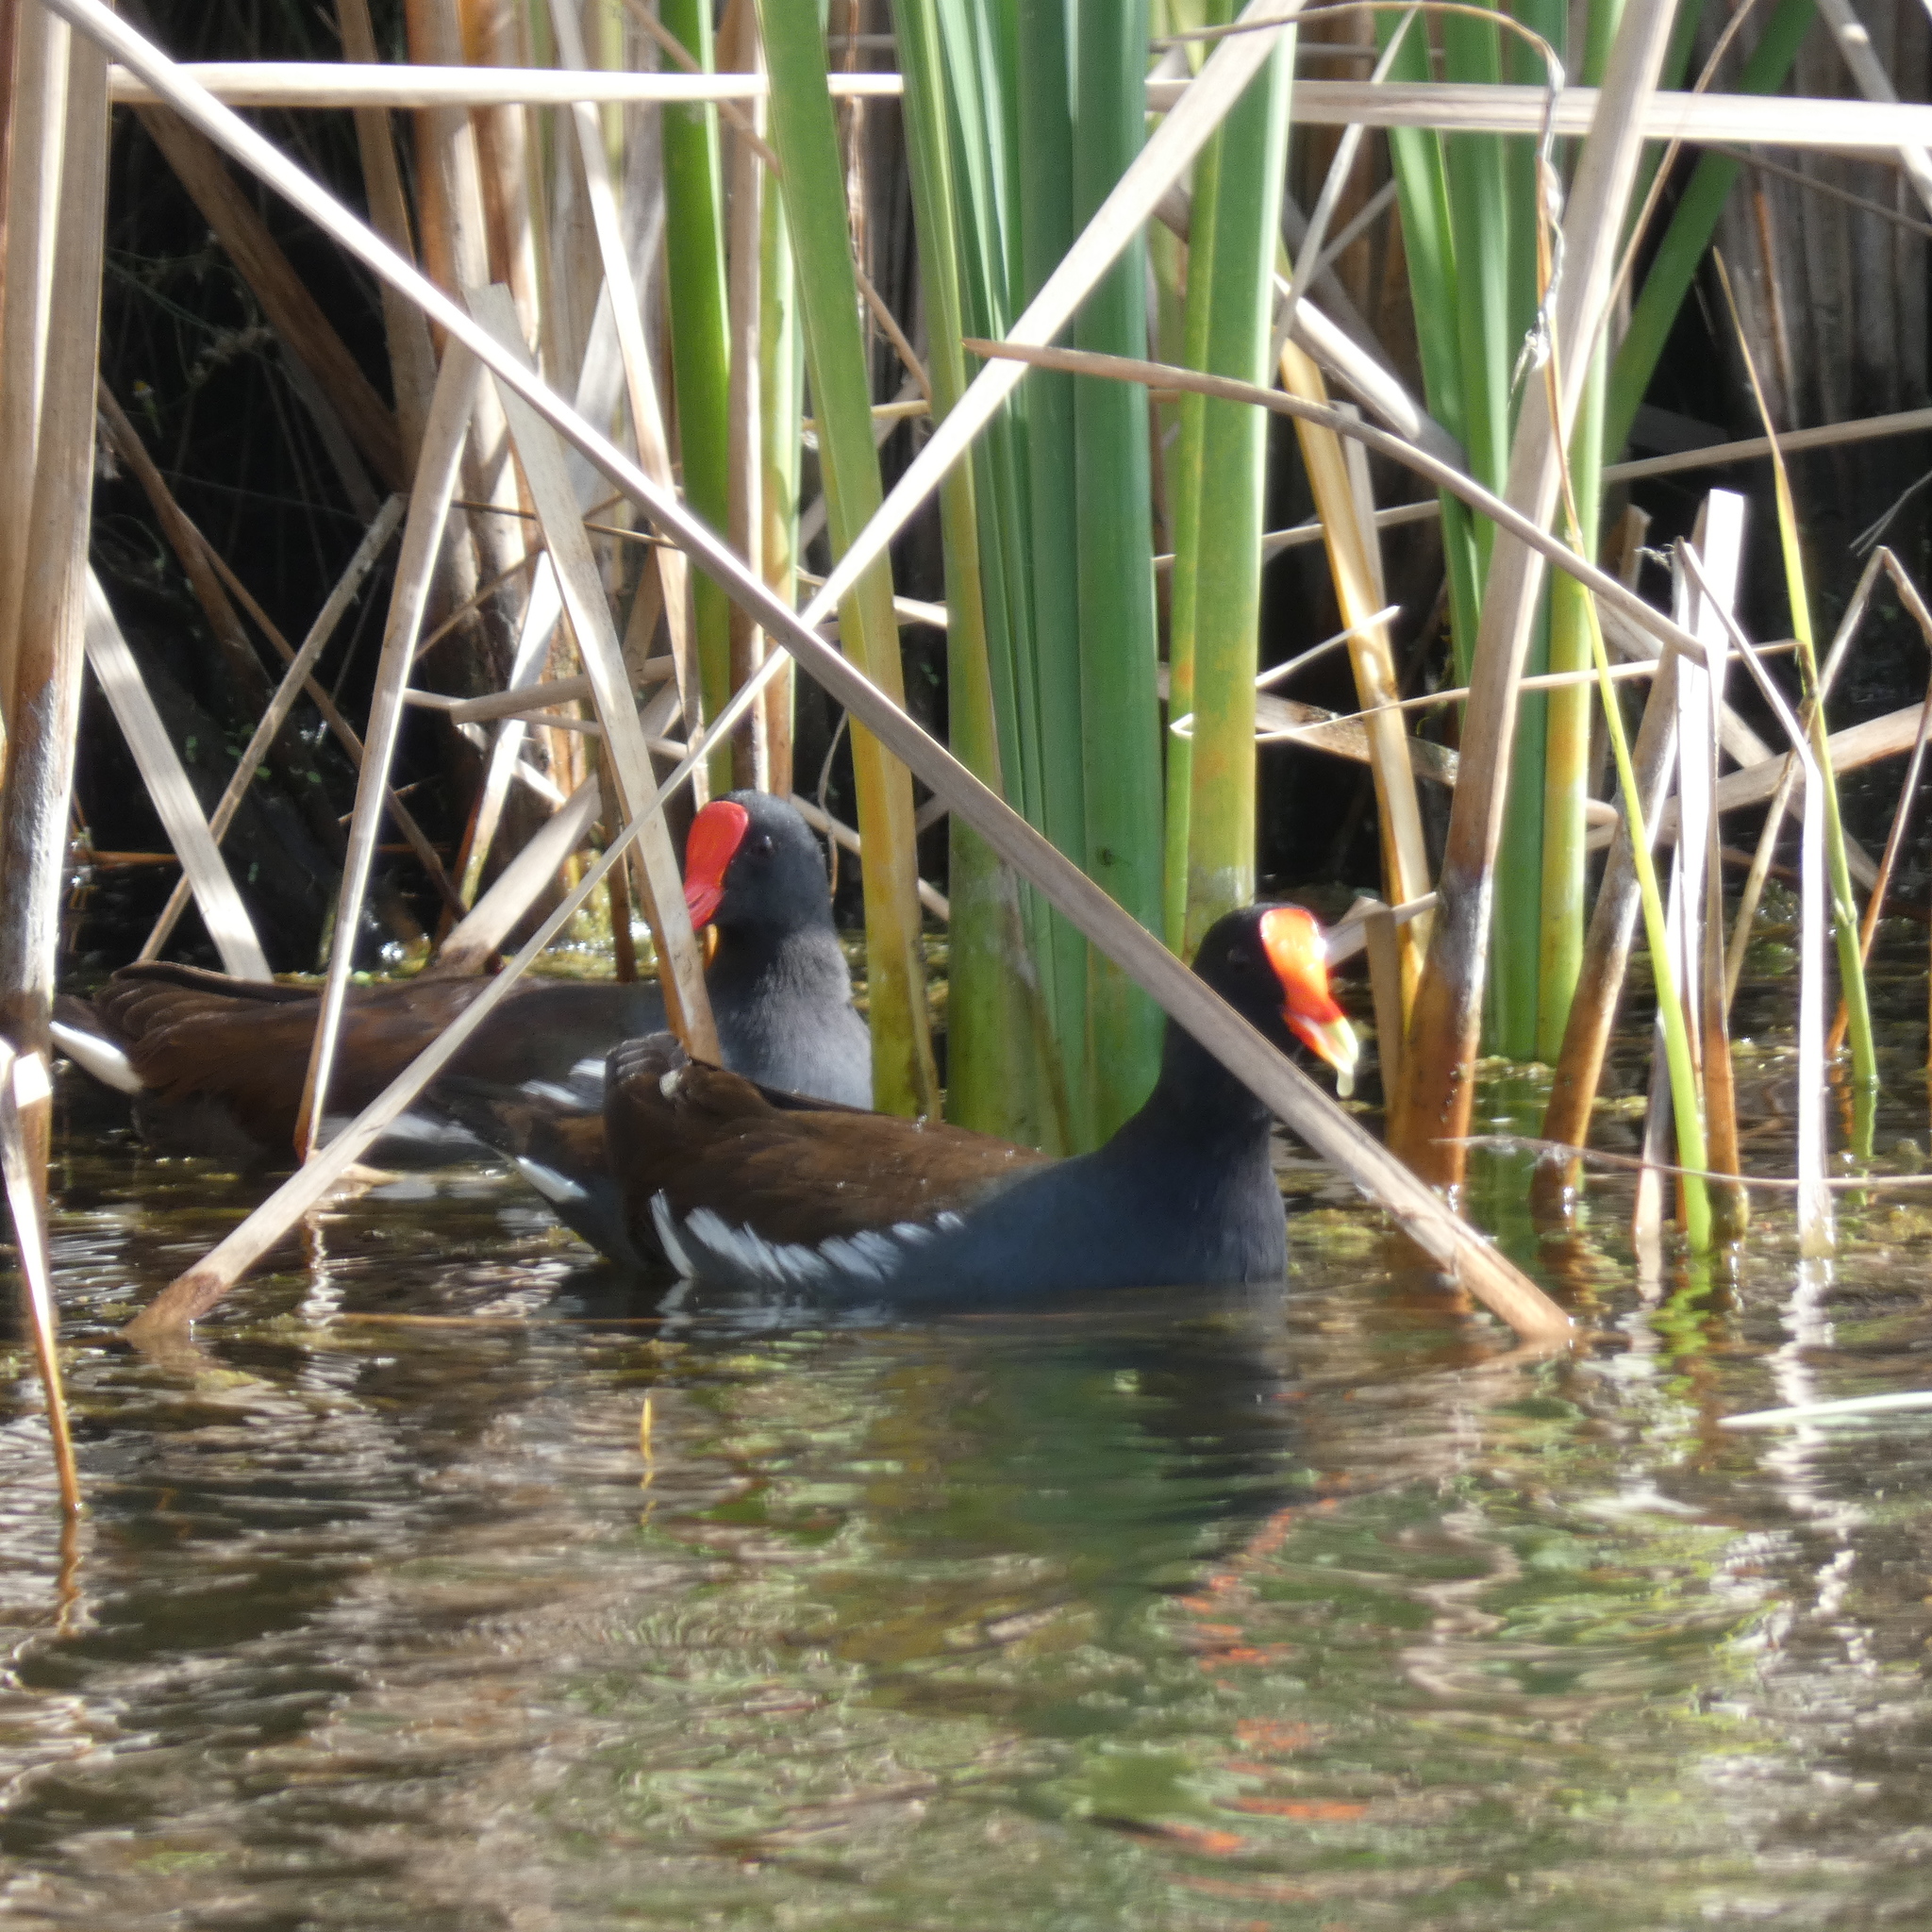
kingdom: Animalia
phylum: Chordata
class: Aves
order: Gruiformes
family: Rallidae
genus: Gallinula
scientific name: Gallinula chloropus
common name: Common moorhen
